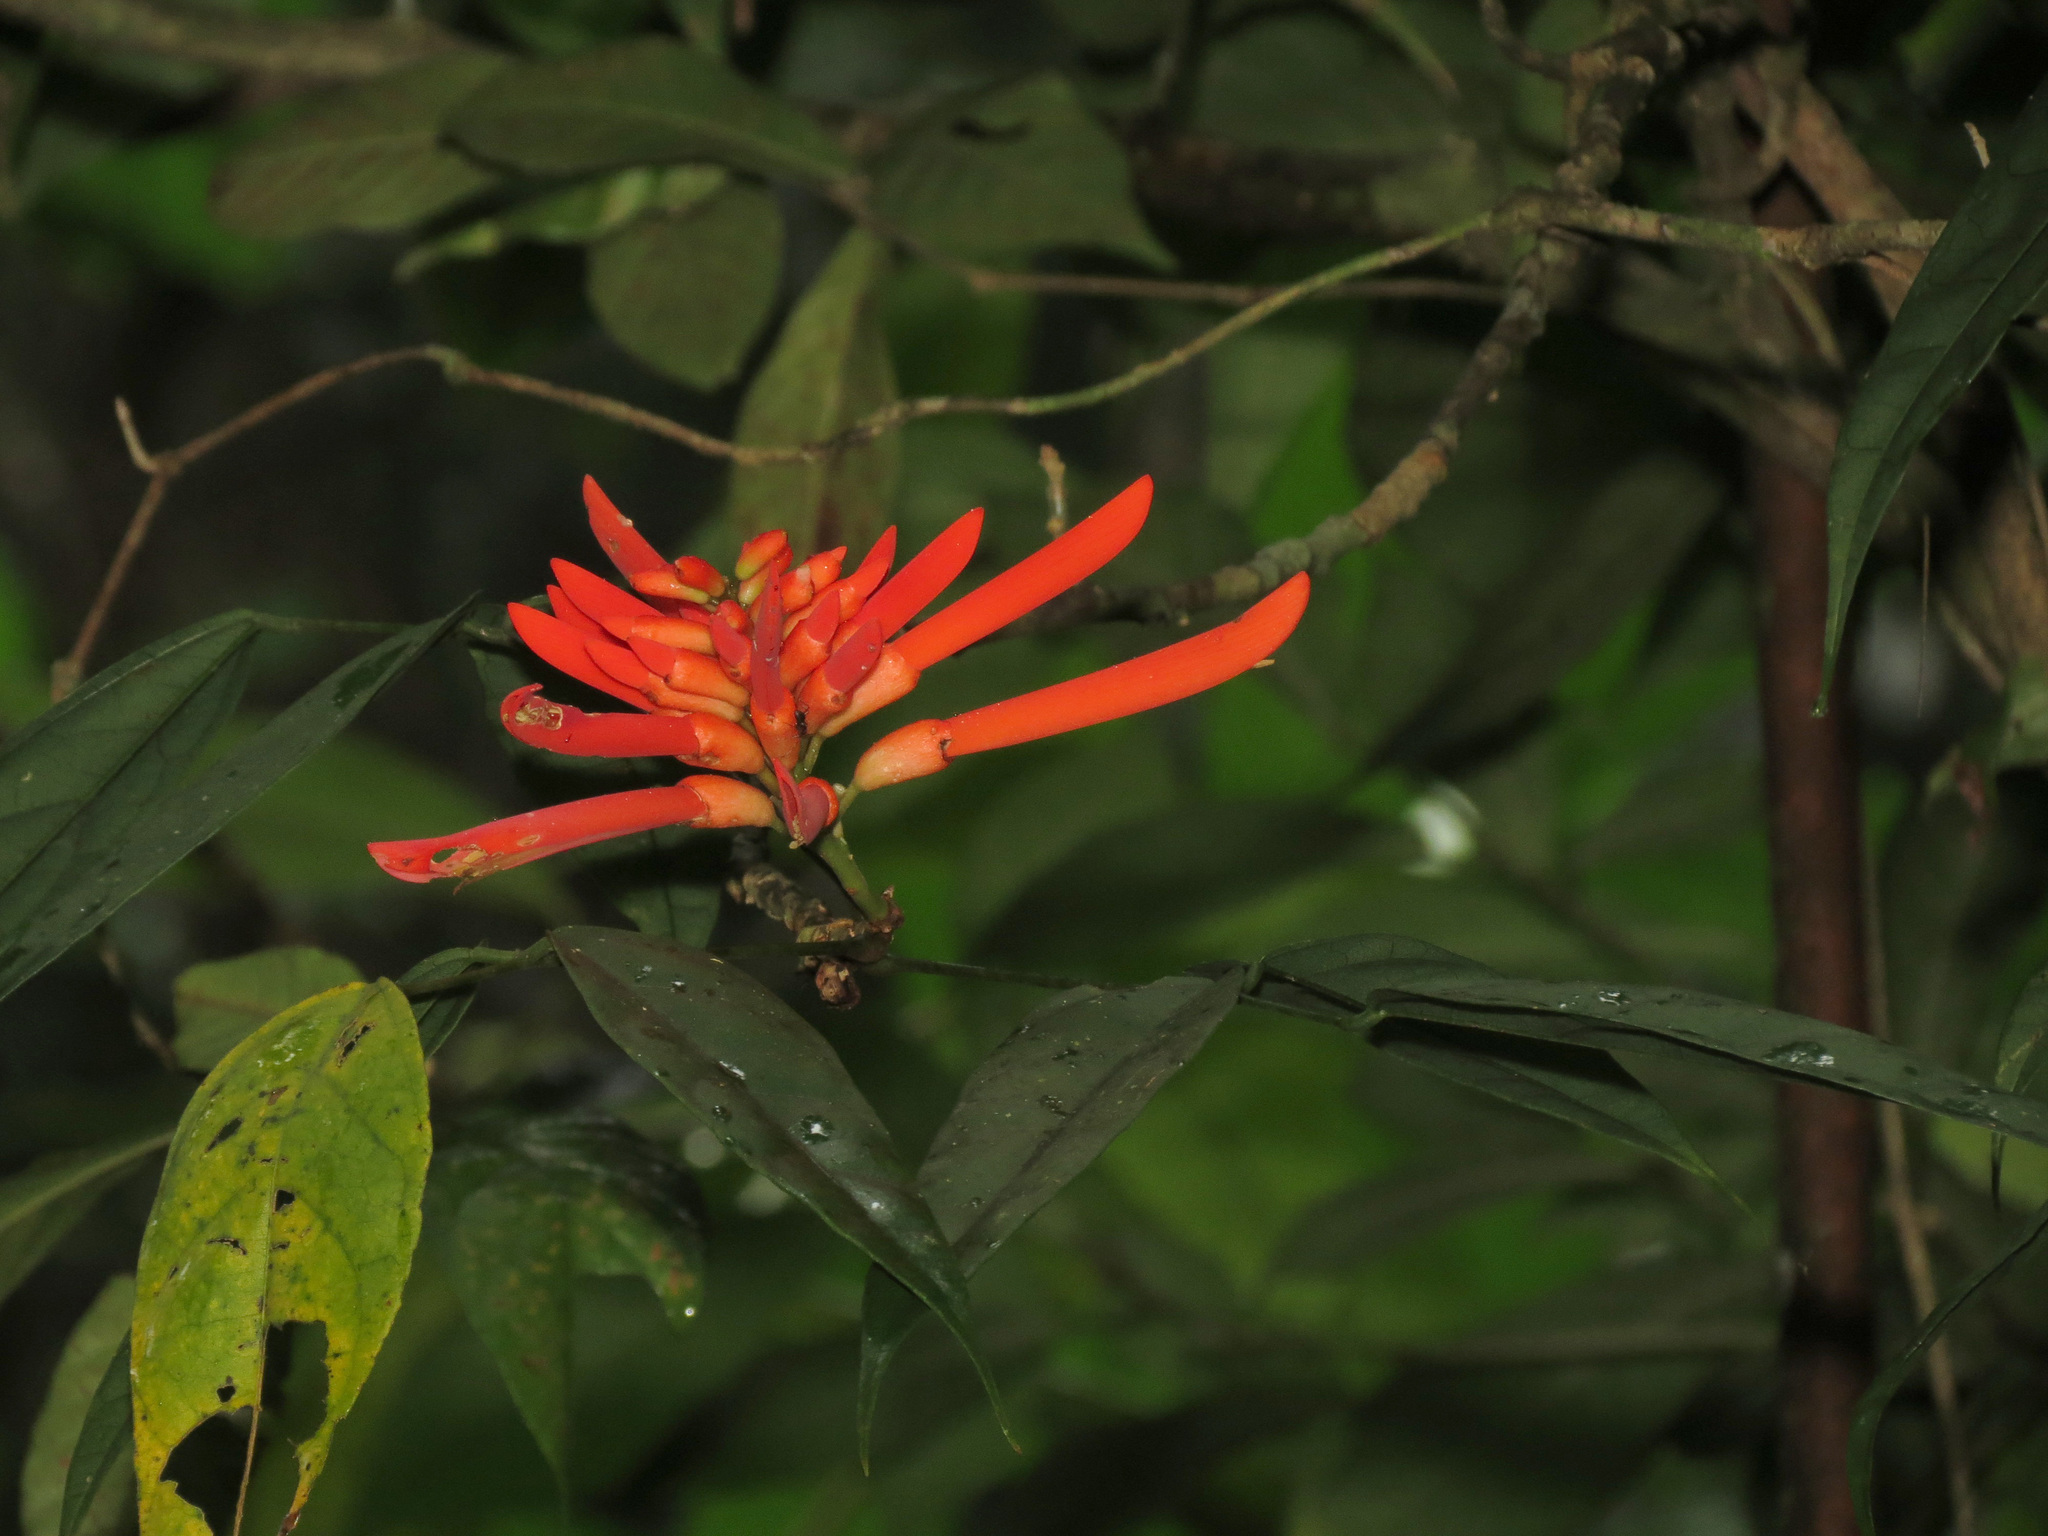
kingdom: Plantae
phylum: Tracheophyta
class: Magnoliopsida
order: Fabales
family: Fabaceae
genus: Erythrina
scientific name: Erythrina thyrsiflora
